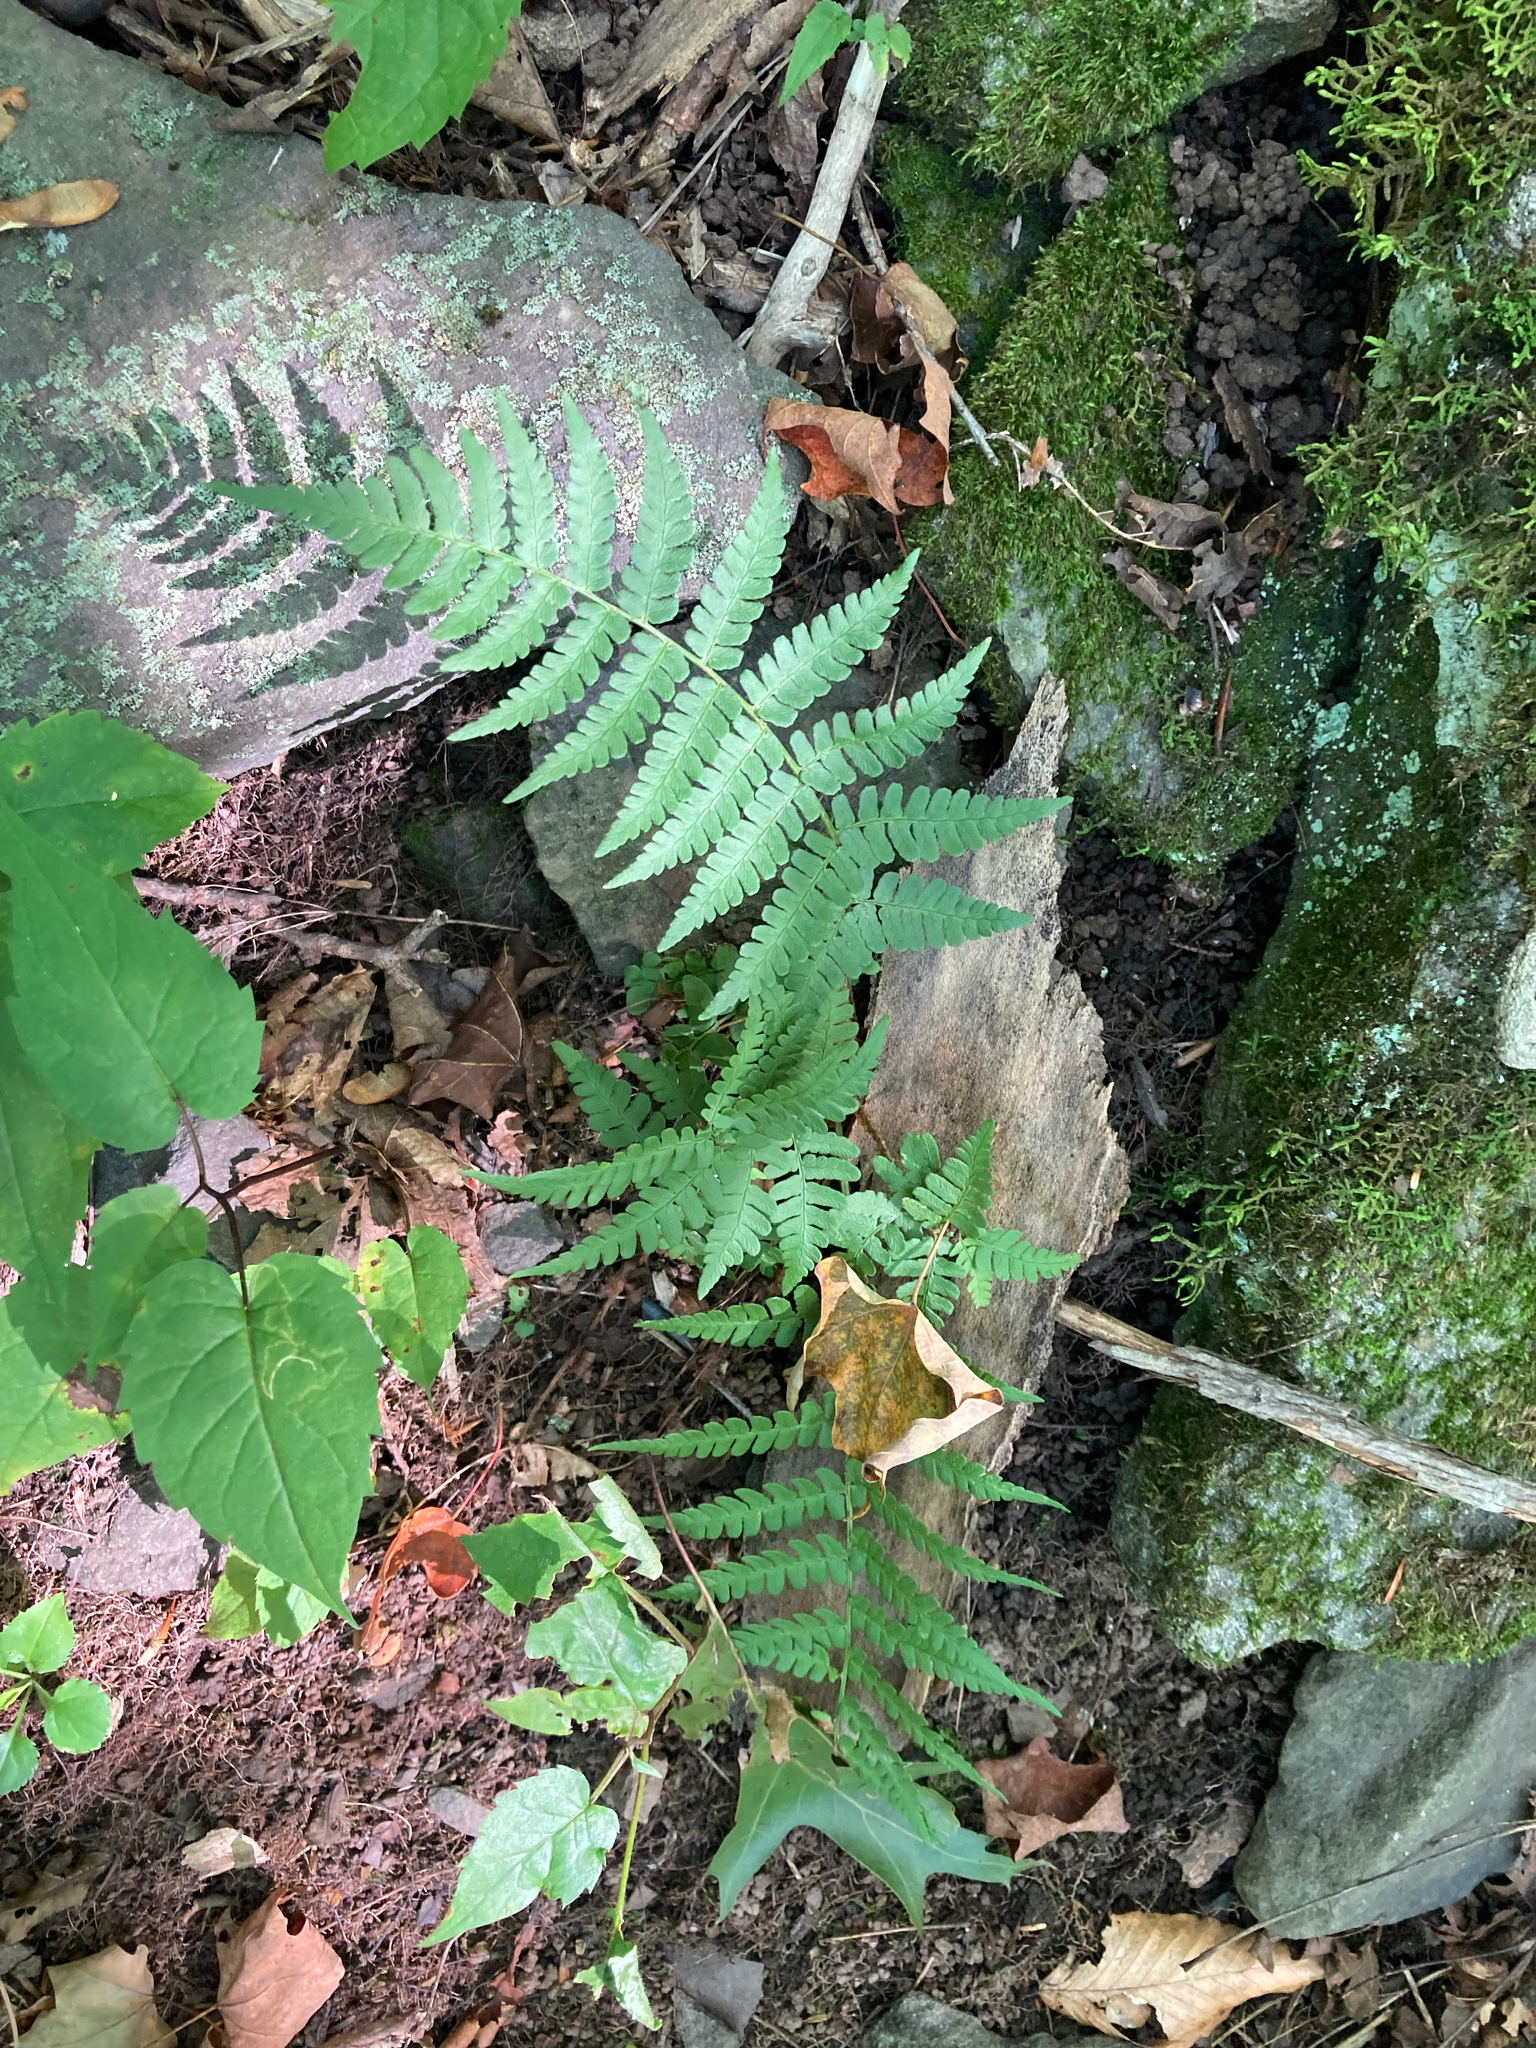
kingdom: Plantae
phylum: Tracheophyta
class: Polypodiopsida
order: Polypodiales
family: Dryopteridaceae
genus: Dryopteris
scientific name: Dryopteris marginalis
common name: Marginal wood fern
